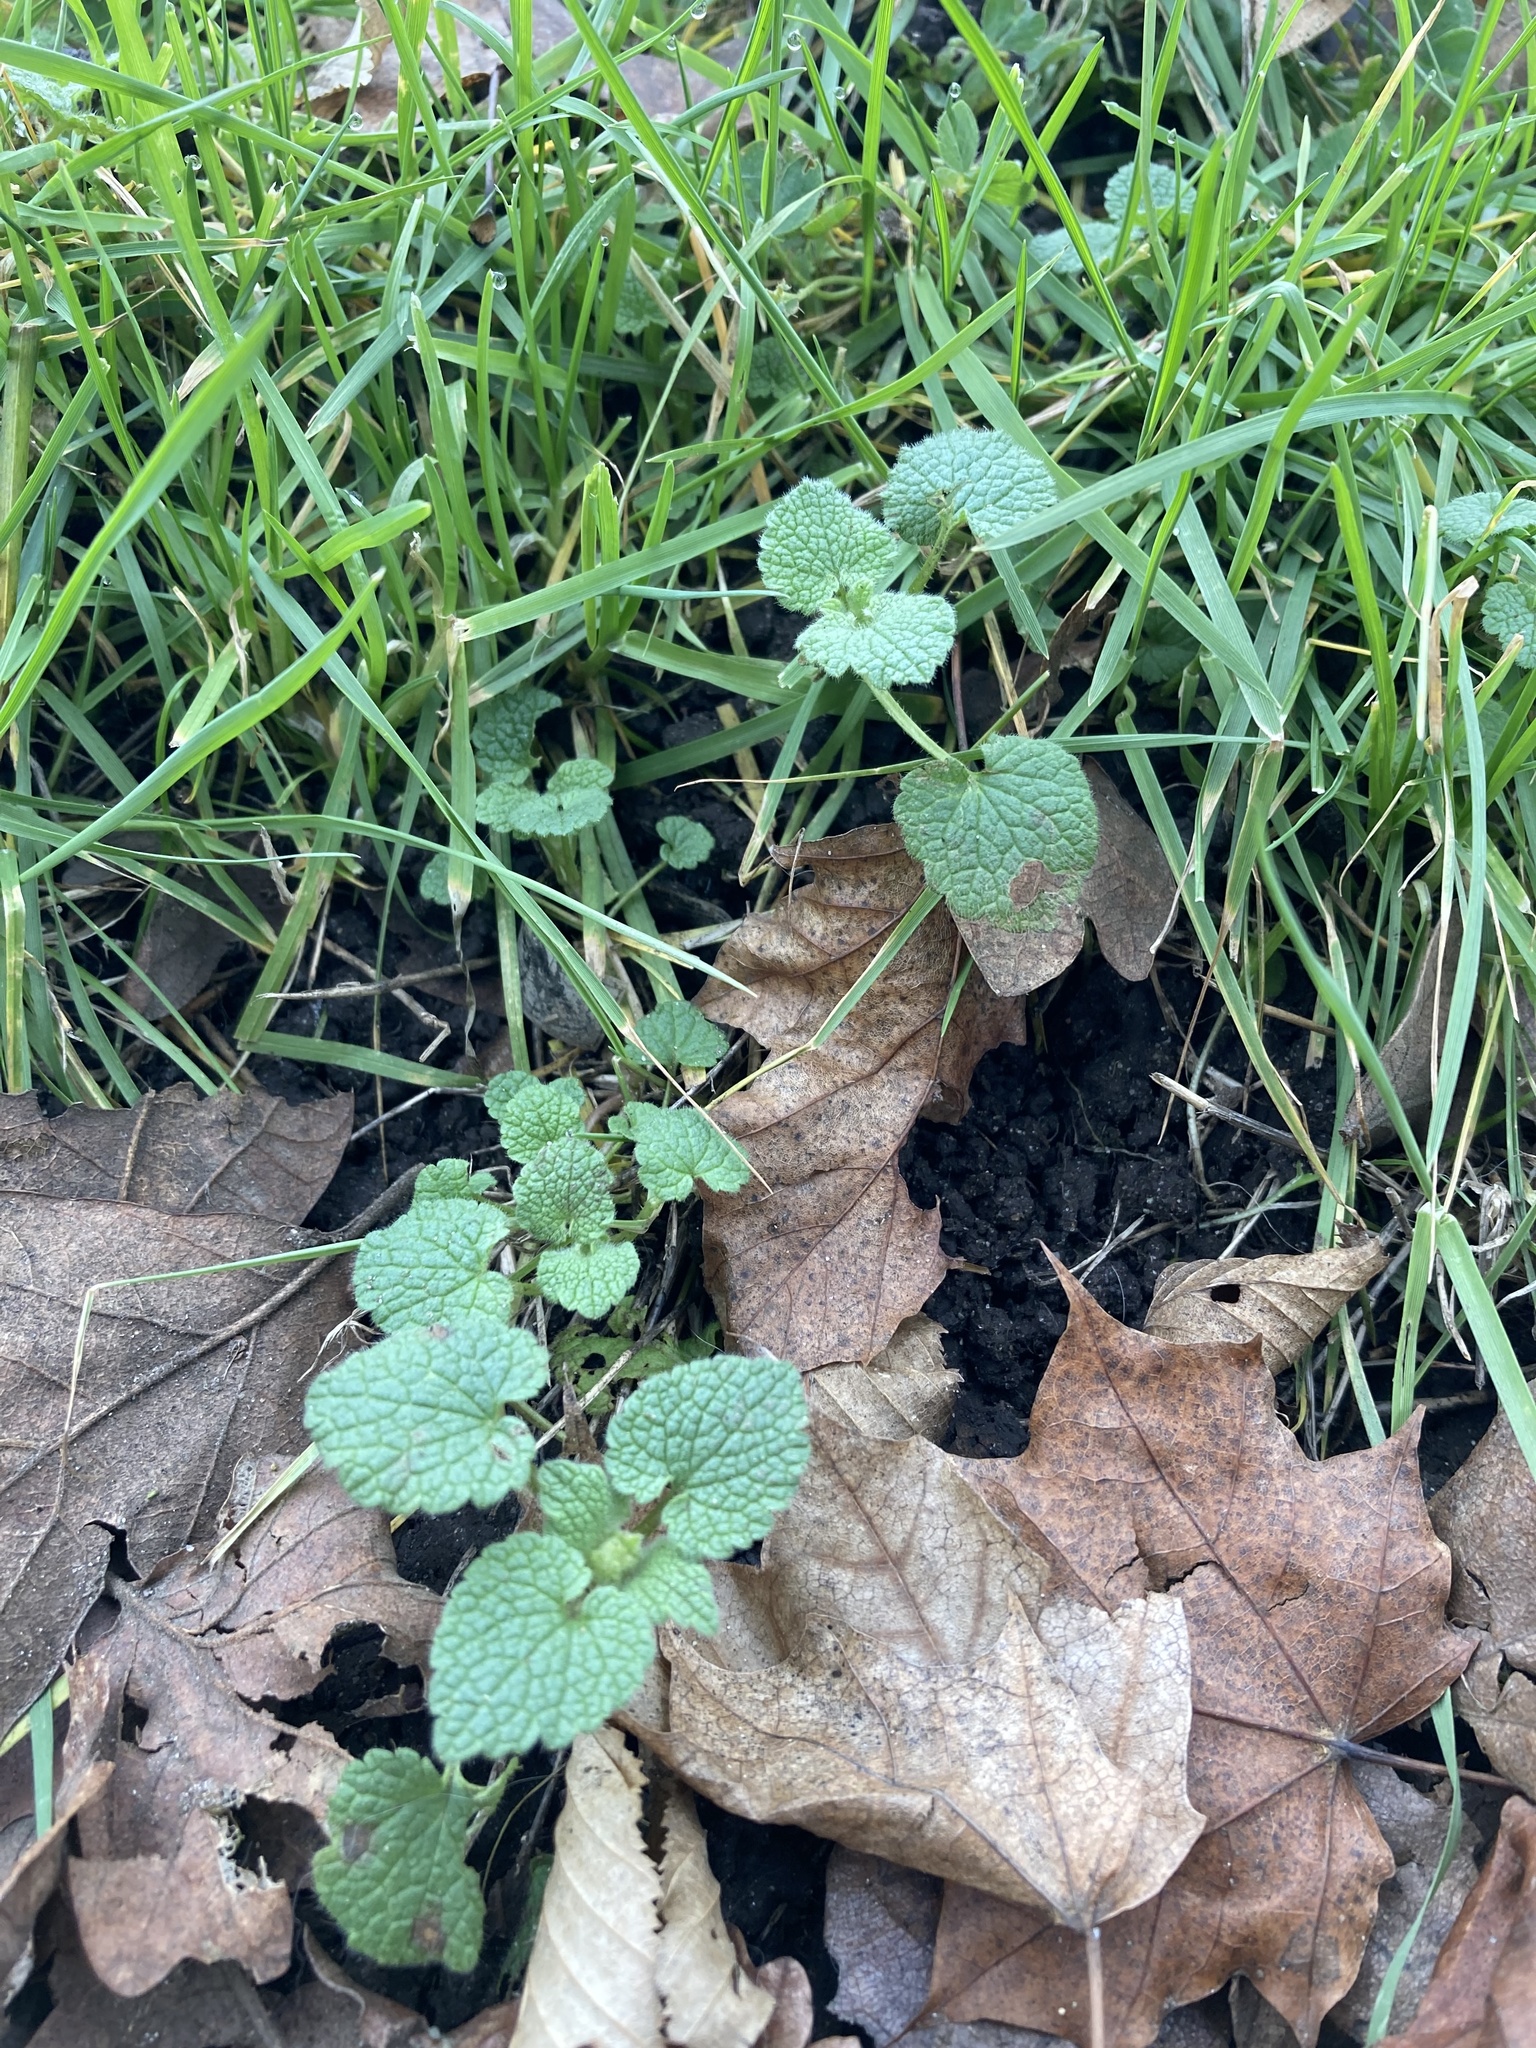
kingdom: Plantae
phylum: Tracheophyta
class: Magnoliopsida
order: Lamiales
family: Lamiaceae
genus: Lamium
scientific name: Lamium purpureum
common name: Red dead-nettle
